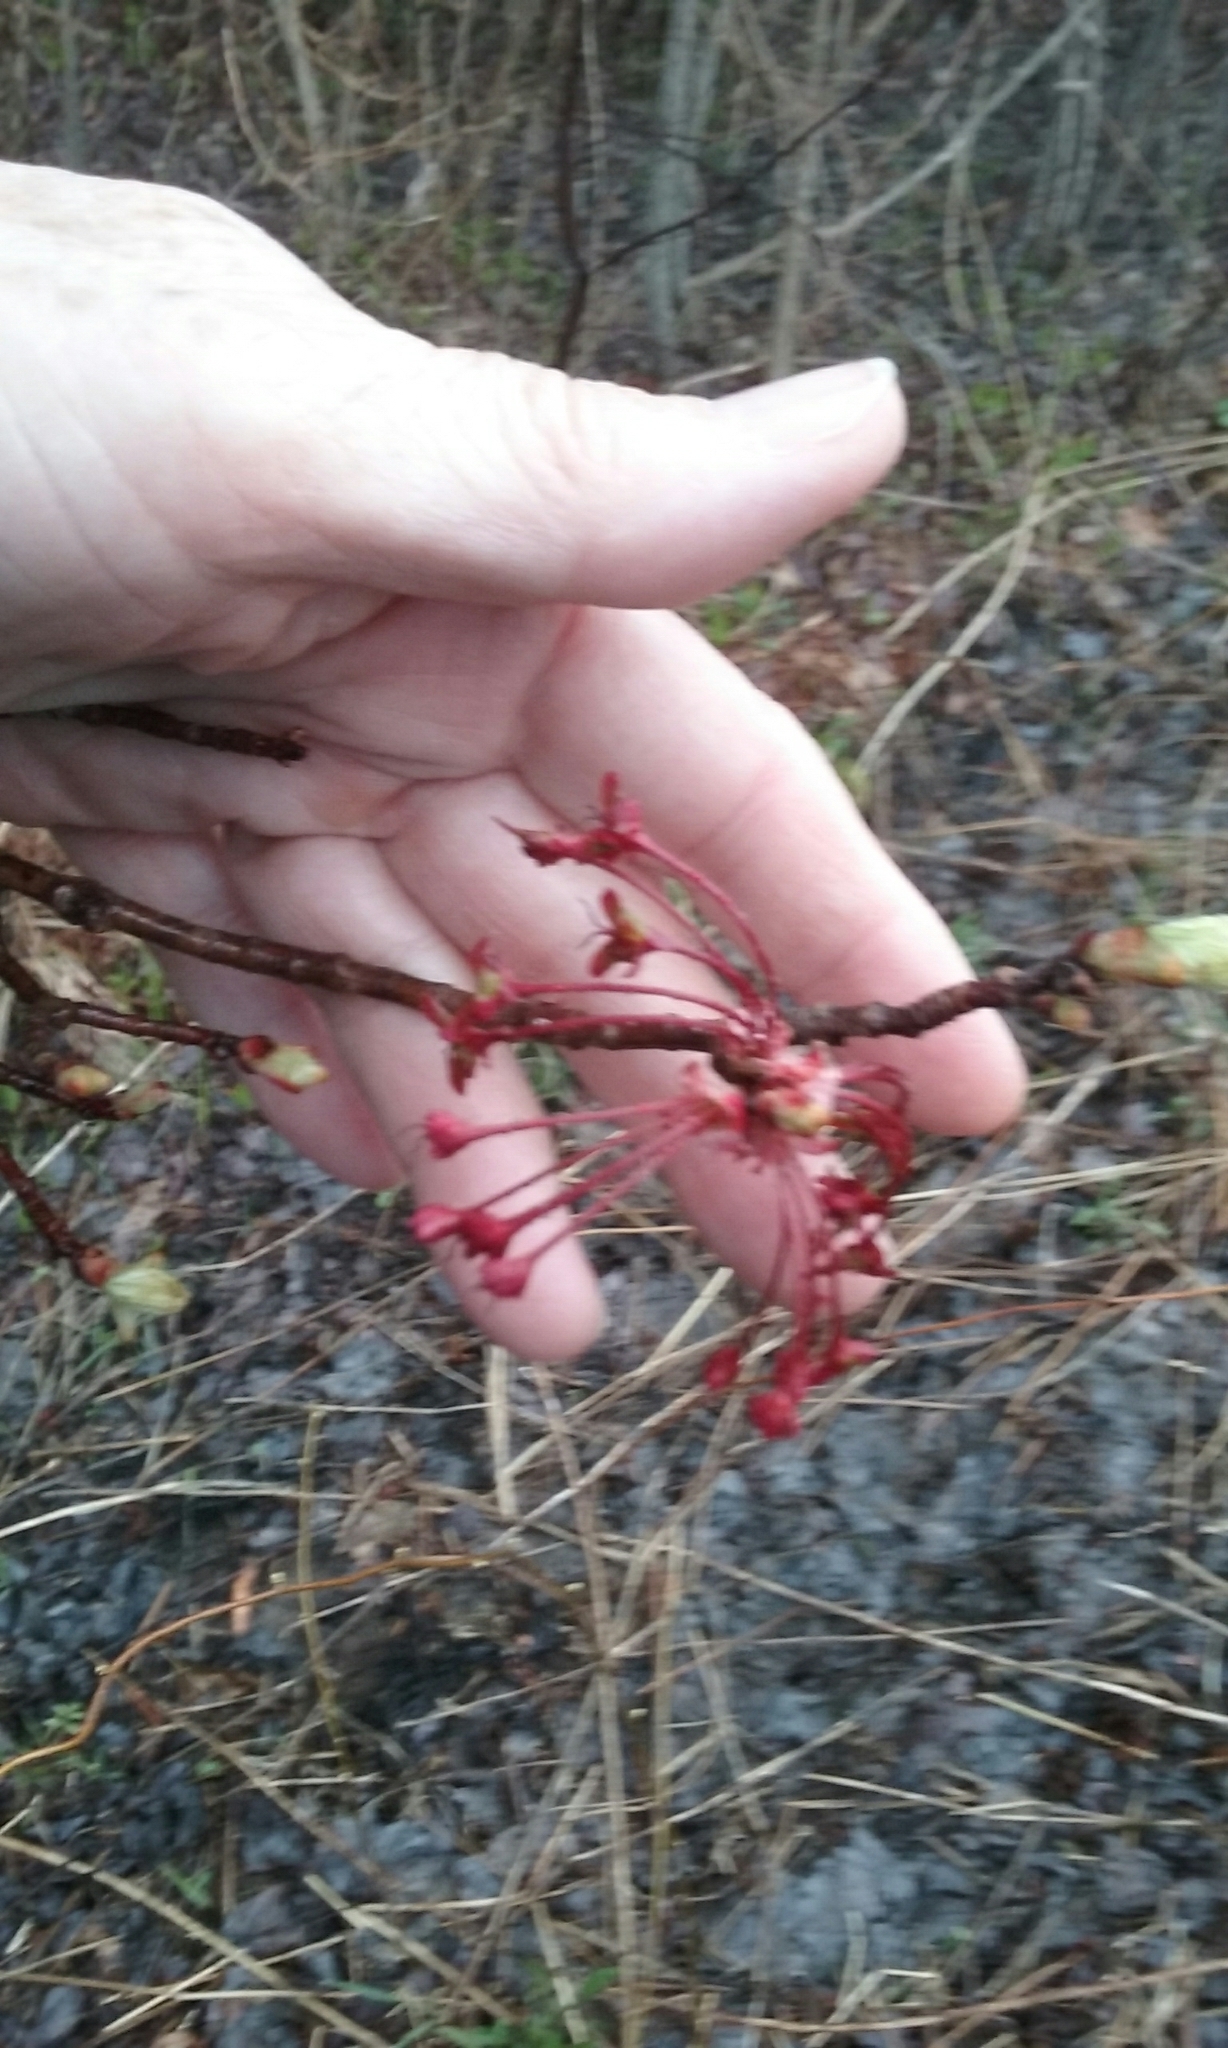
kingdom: Plantae
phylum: Tracheophyta
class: Magnoliopsida
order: Sapindales
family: Sapindaceae
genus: Acer
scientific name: Acer rubrum
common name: Red maple
